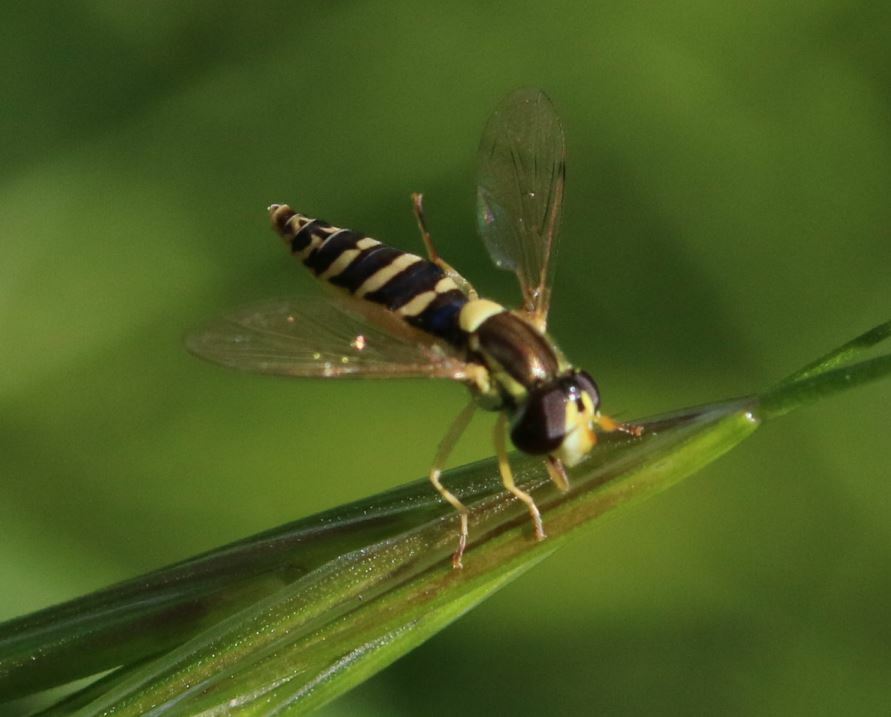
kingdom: Animalia
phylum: Arthropoda
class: Insecta
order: Diptera
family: Syrphidae
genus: Sphaerophoria
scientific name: Sphaerophoria
